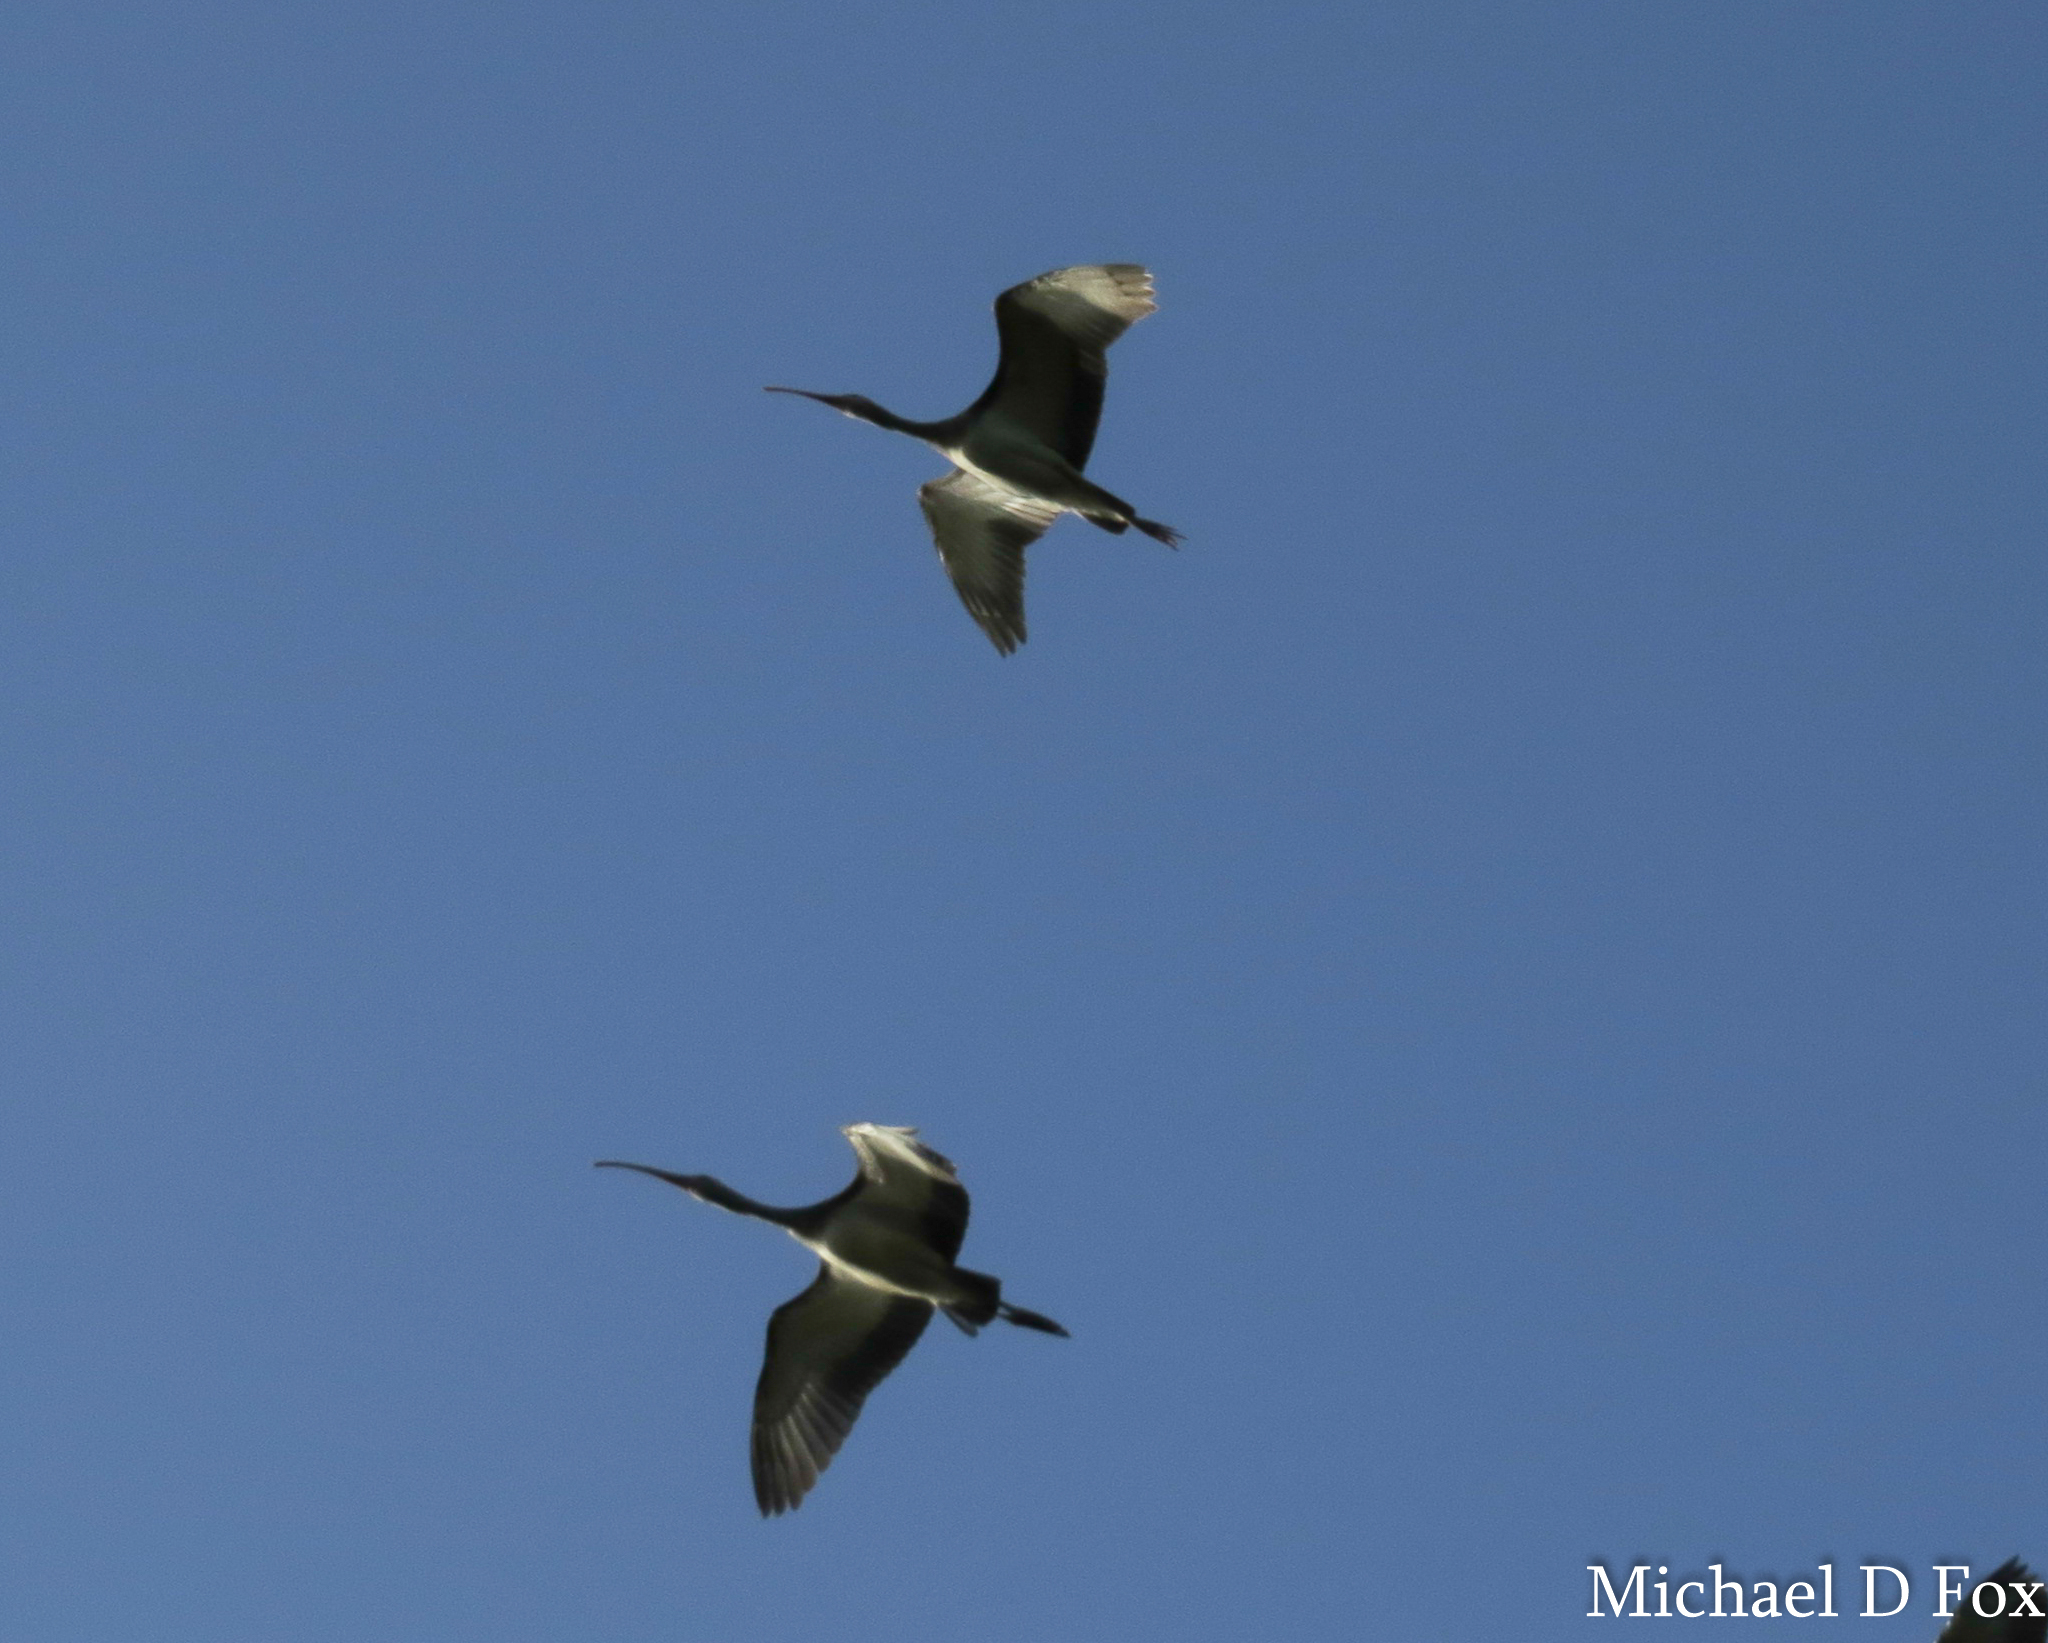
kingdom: Animalia
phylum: Chordata
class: Aves
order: Pelecaniformes
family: Threskiornithidae
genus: Eudocimus
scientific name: Eudocimus albus
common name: White ibis
